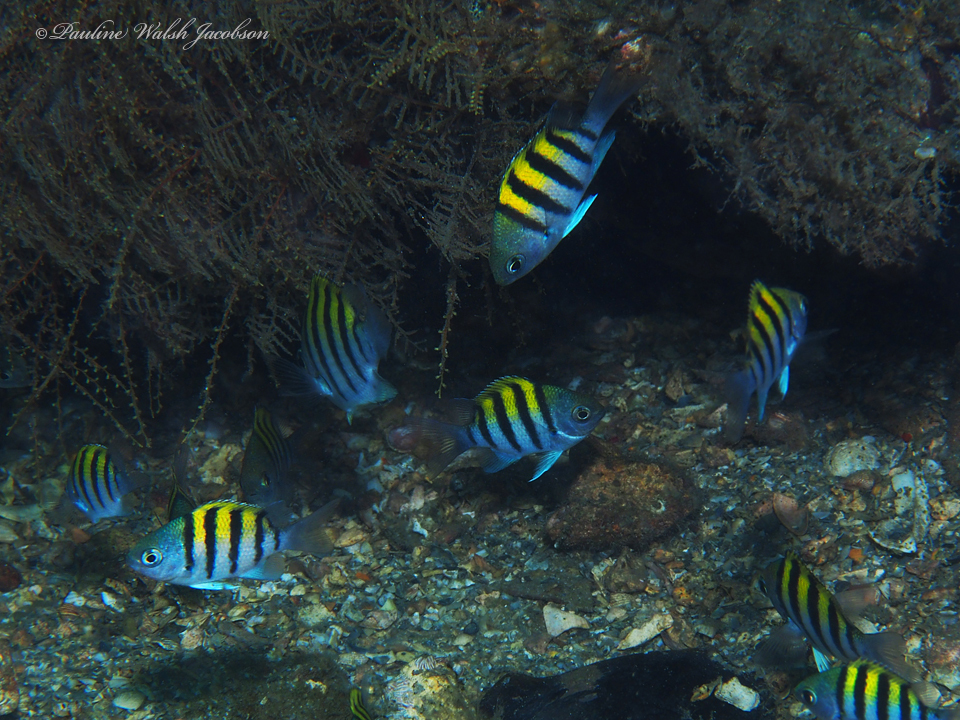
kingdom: Animalia
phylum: Chordata
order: Perciformes
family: Pomacentridae
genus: Abudefduf
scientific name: Abudefduf saxatilis
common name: Sergeant major
